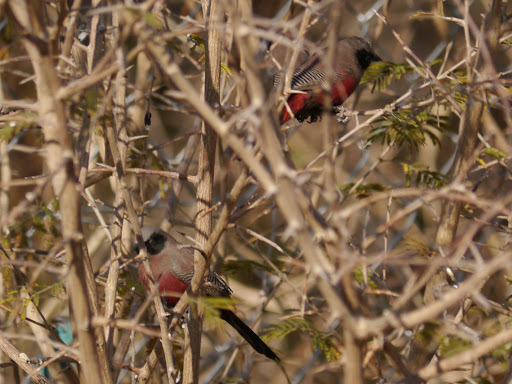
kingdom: Animalia
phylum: Chordata
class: Aves
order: Passeriformes
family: Estrildidae
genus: Estrilda
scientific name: Estrilda erythronotos
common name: Black-faced waxbill
